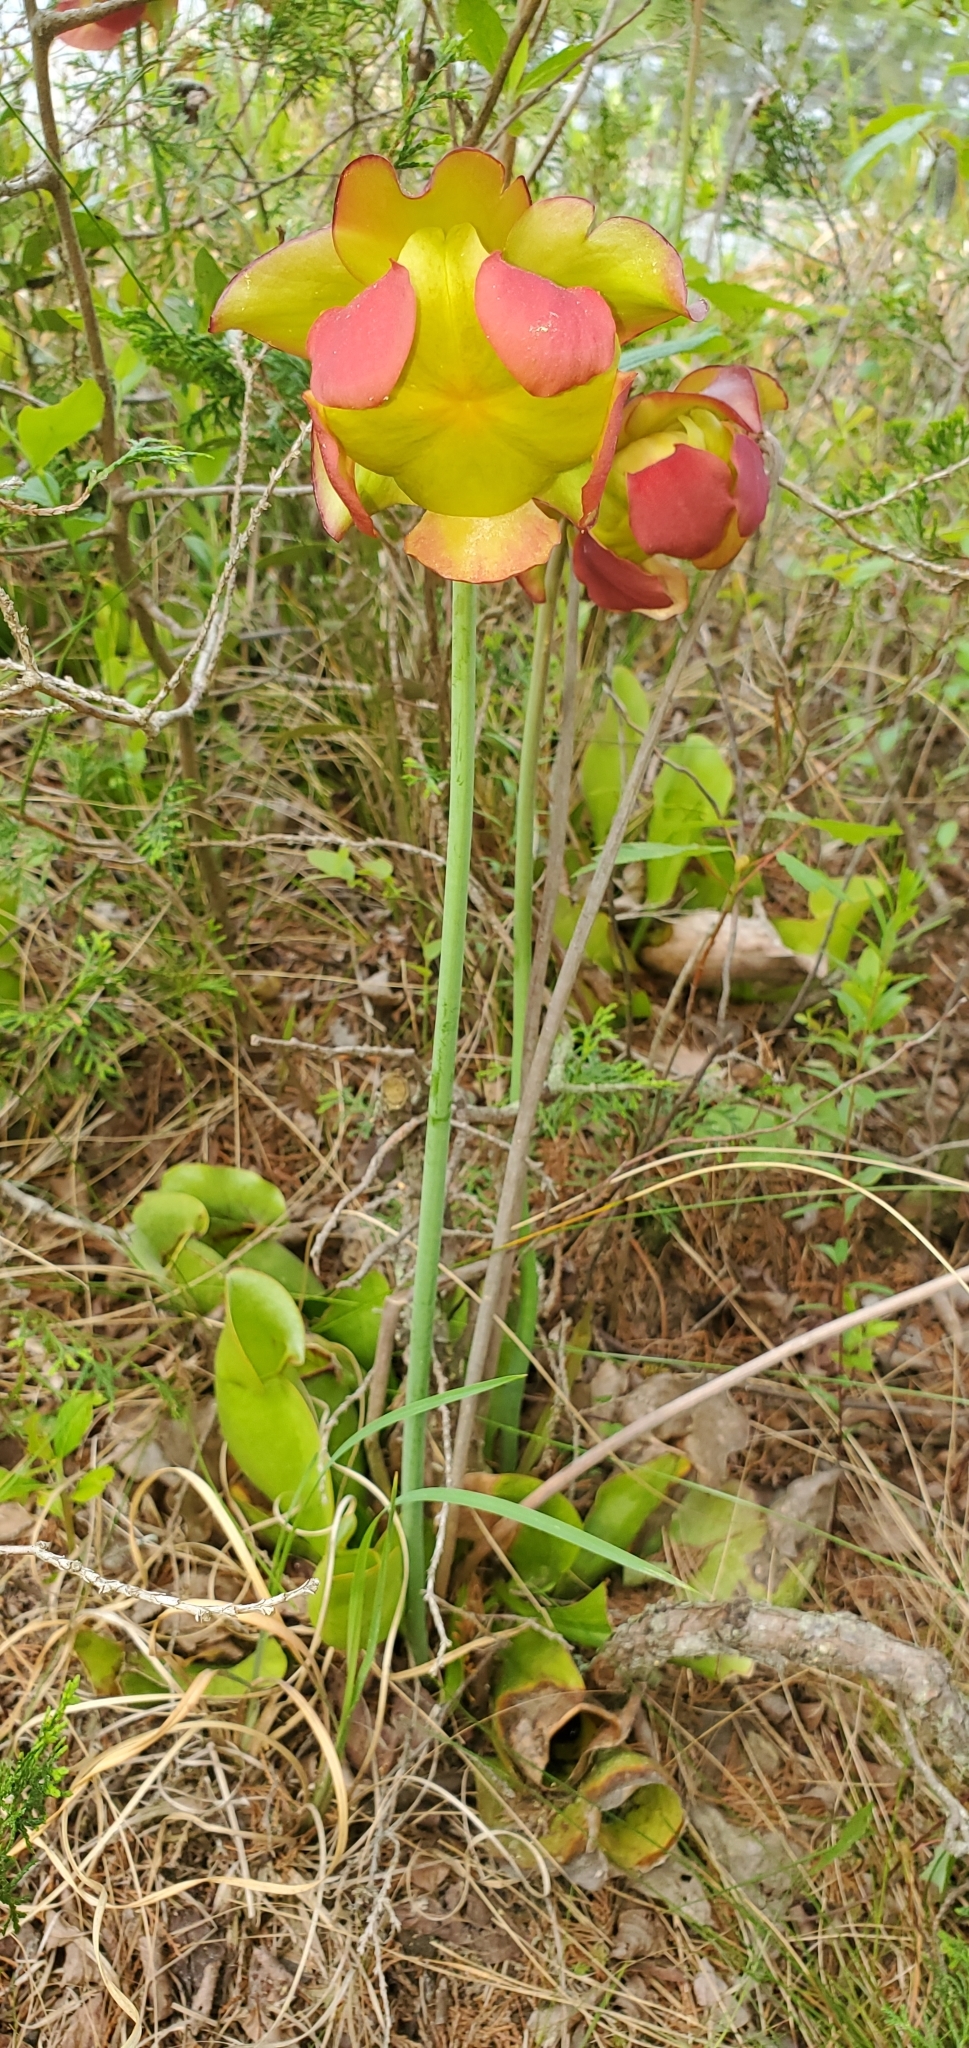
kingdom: Plantae
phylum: Tracheophyta
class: Magnoliopsida
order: Ericales
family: Sarraceniaceae
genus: Sarracenia
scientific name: Sarracenia purpurea
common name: Pitcherplant
